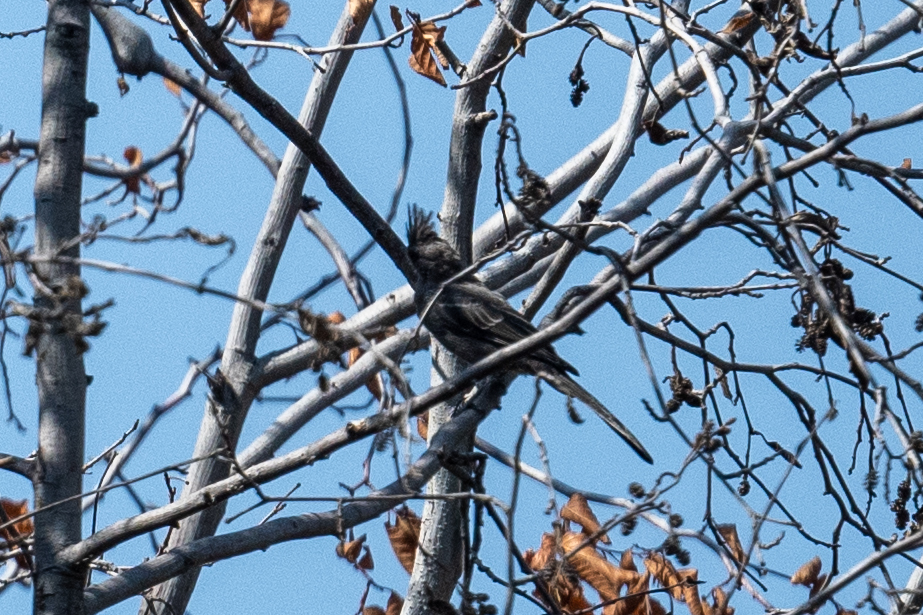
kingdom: Animalia
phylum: Chordata
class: Aves
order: Passeriformes
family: Ptilogonatidae
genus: Phainopepla
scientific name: Phainopepla nitens
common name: Phainopepla
